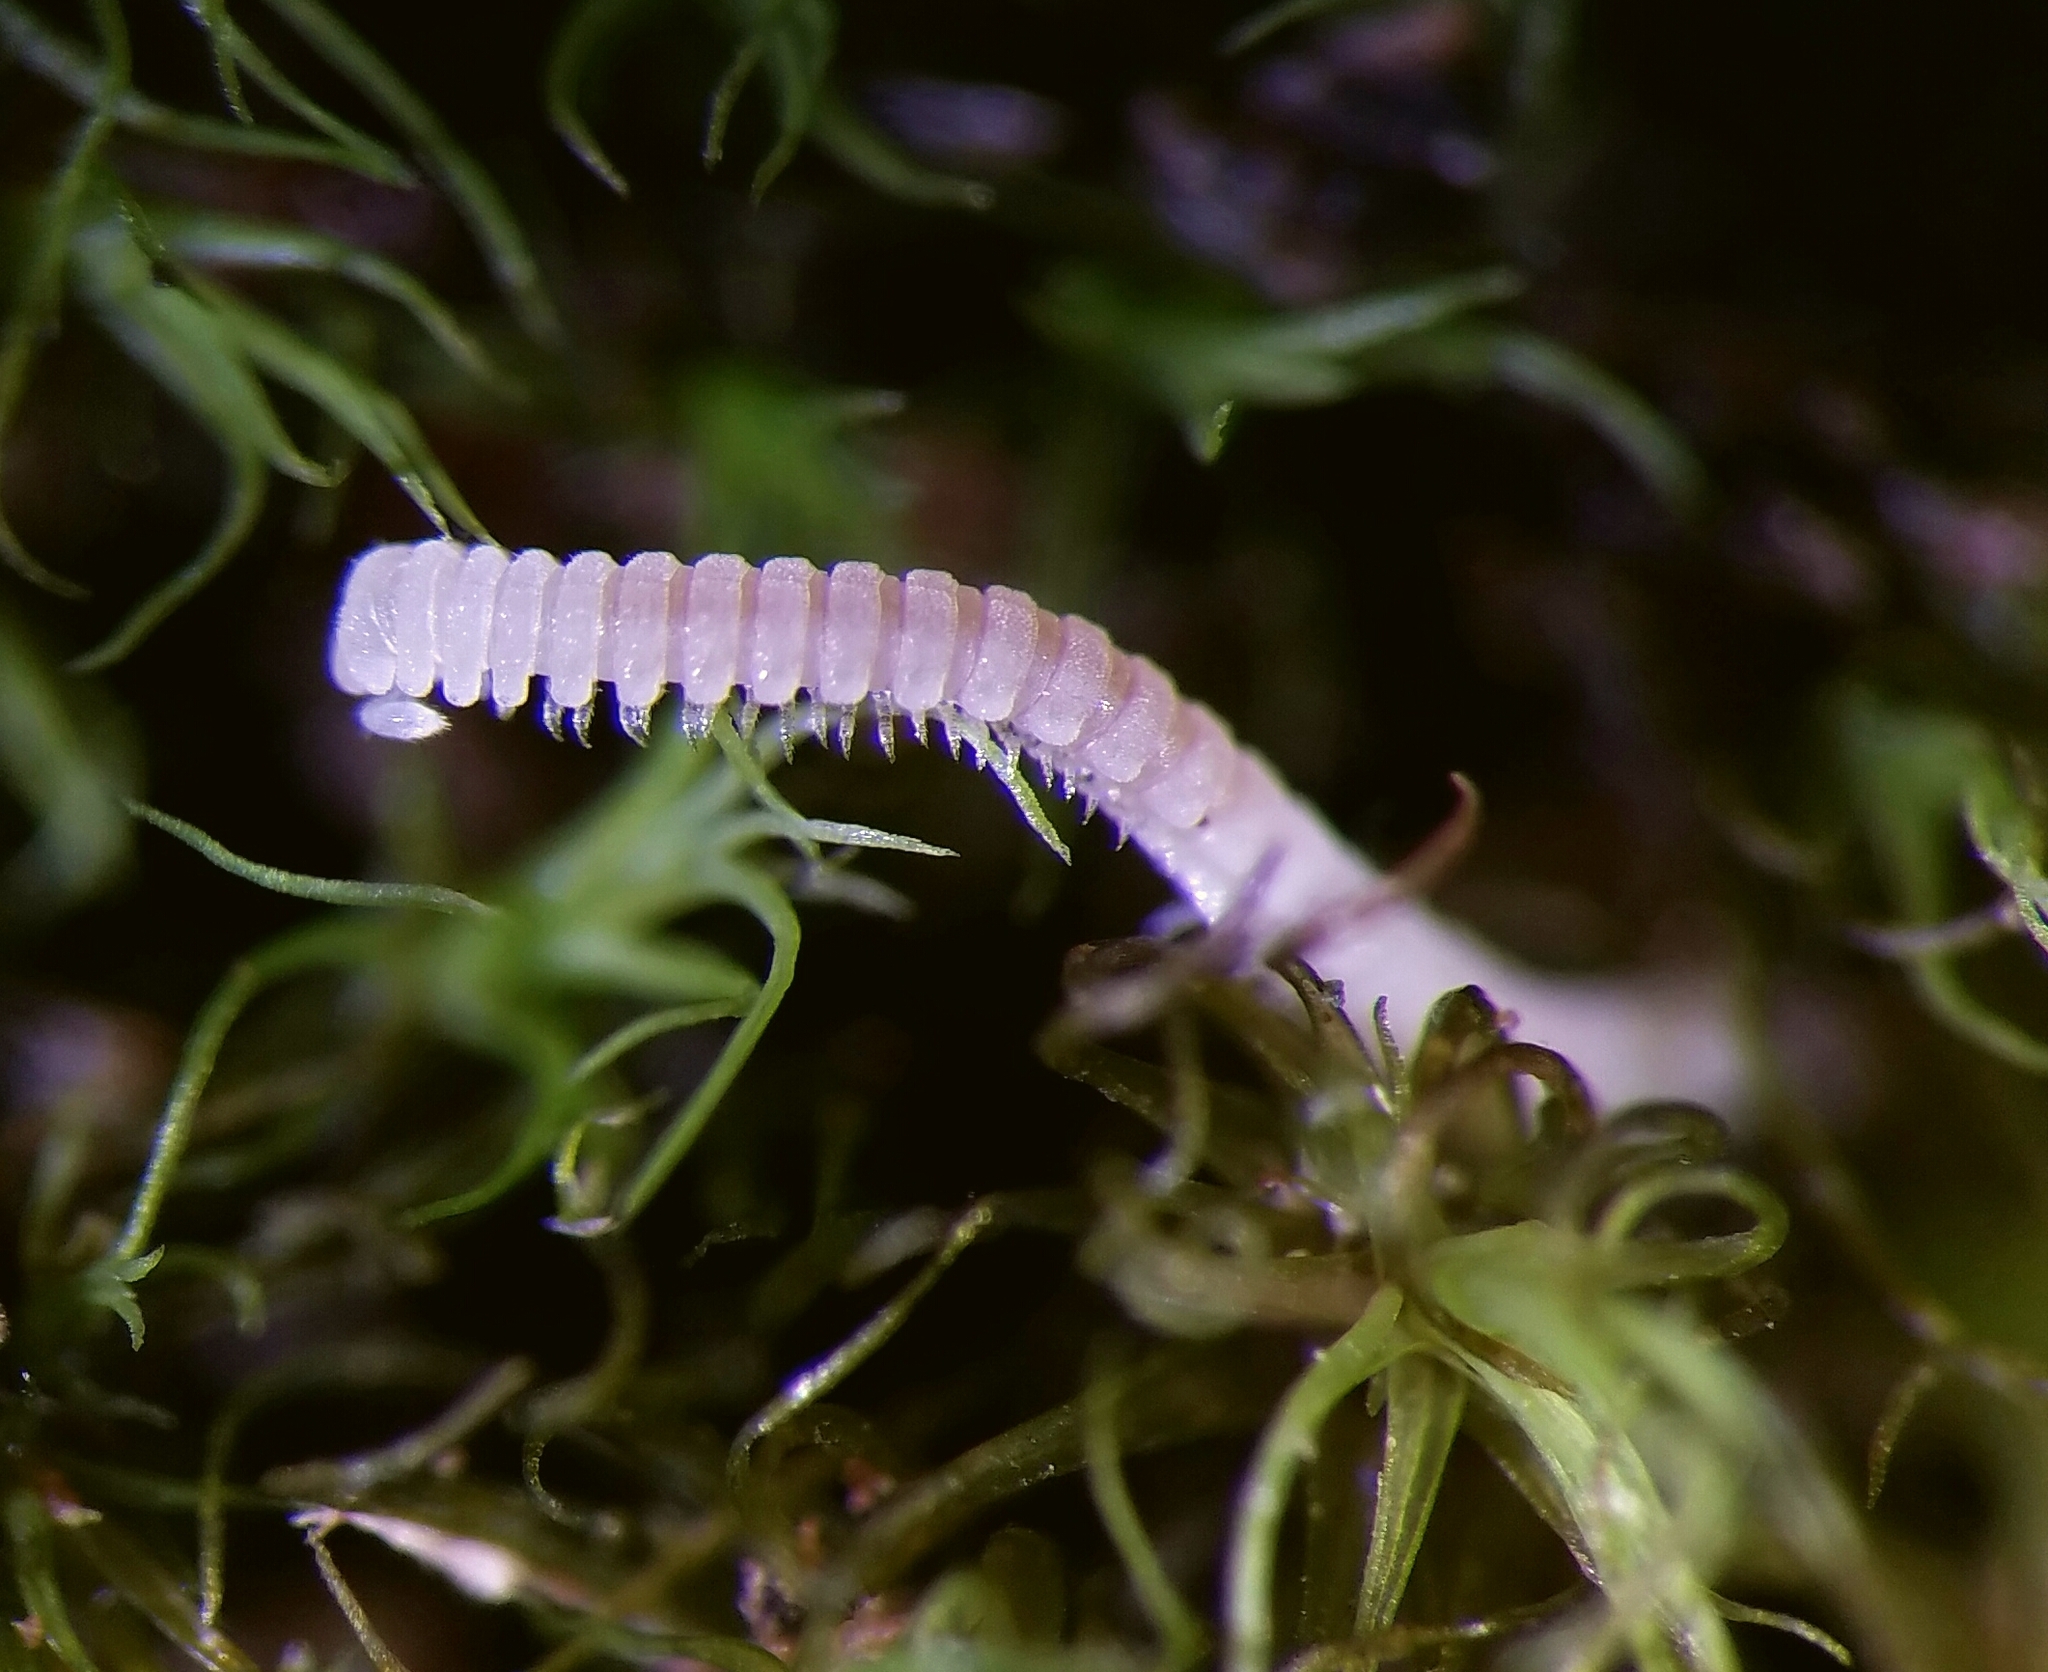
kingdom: Animalia
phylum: Arthropoda
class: Diplopoda
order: Chordeumatida
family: Buotidae
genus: Buotus
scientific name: Buotus carolinus
